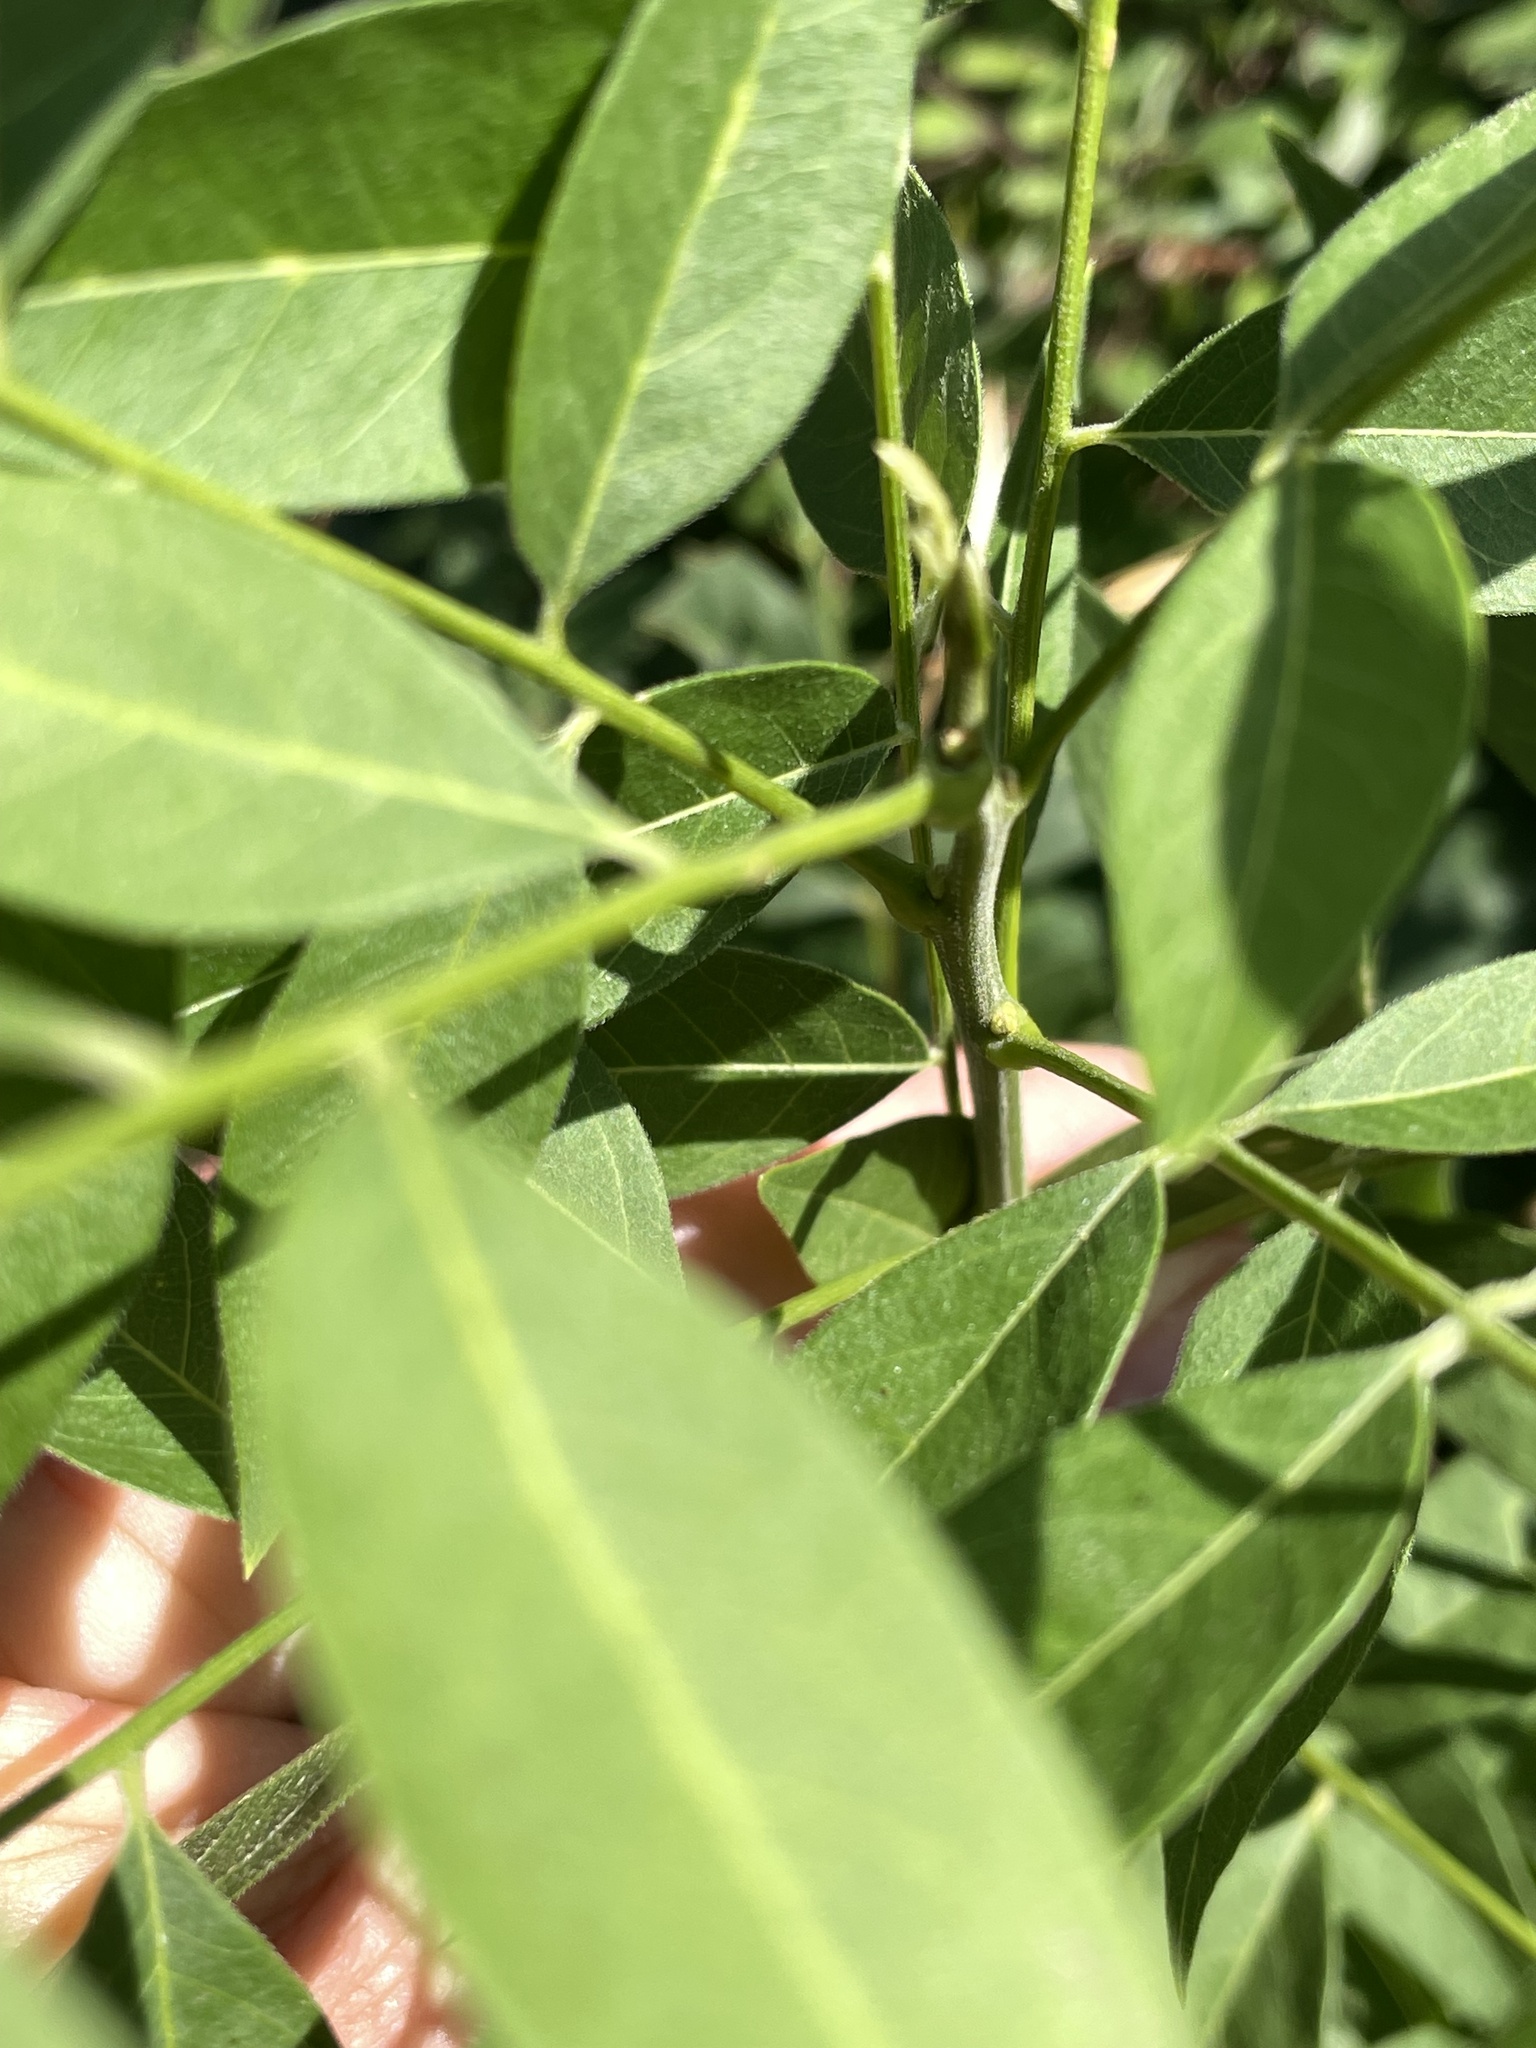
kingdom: Plantae
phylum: Tracheophyta
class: Magnoliopsida
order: Sapindales
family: Sapindaceae
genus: Sapindus
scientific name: Sapindus drummondii
